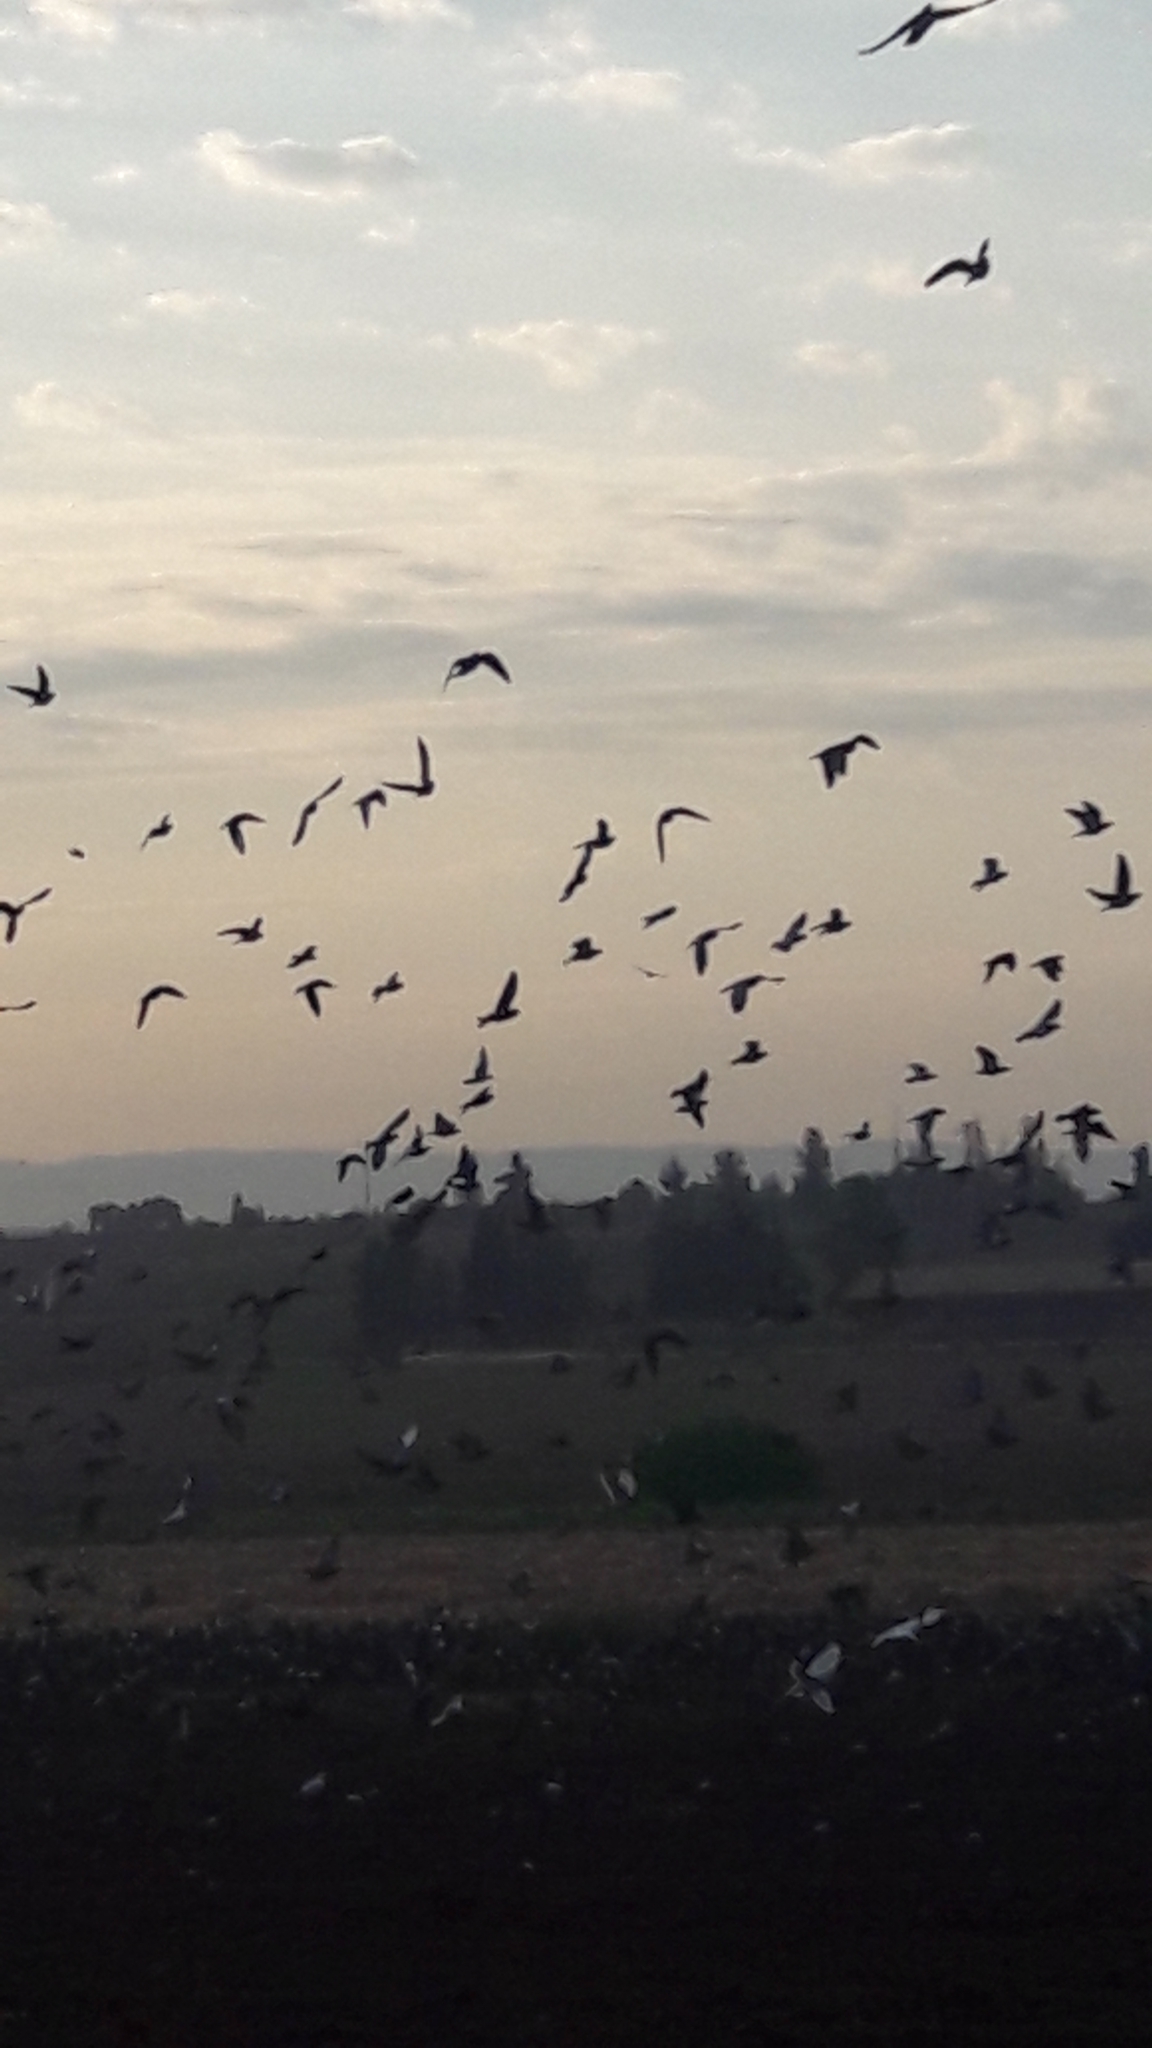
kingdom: Animalia
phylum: Chordata
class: Aves
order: Columbiformes
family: Columbidae
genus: Columba
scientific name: Columba livia
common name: Rock pigeon
